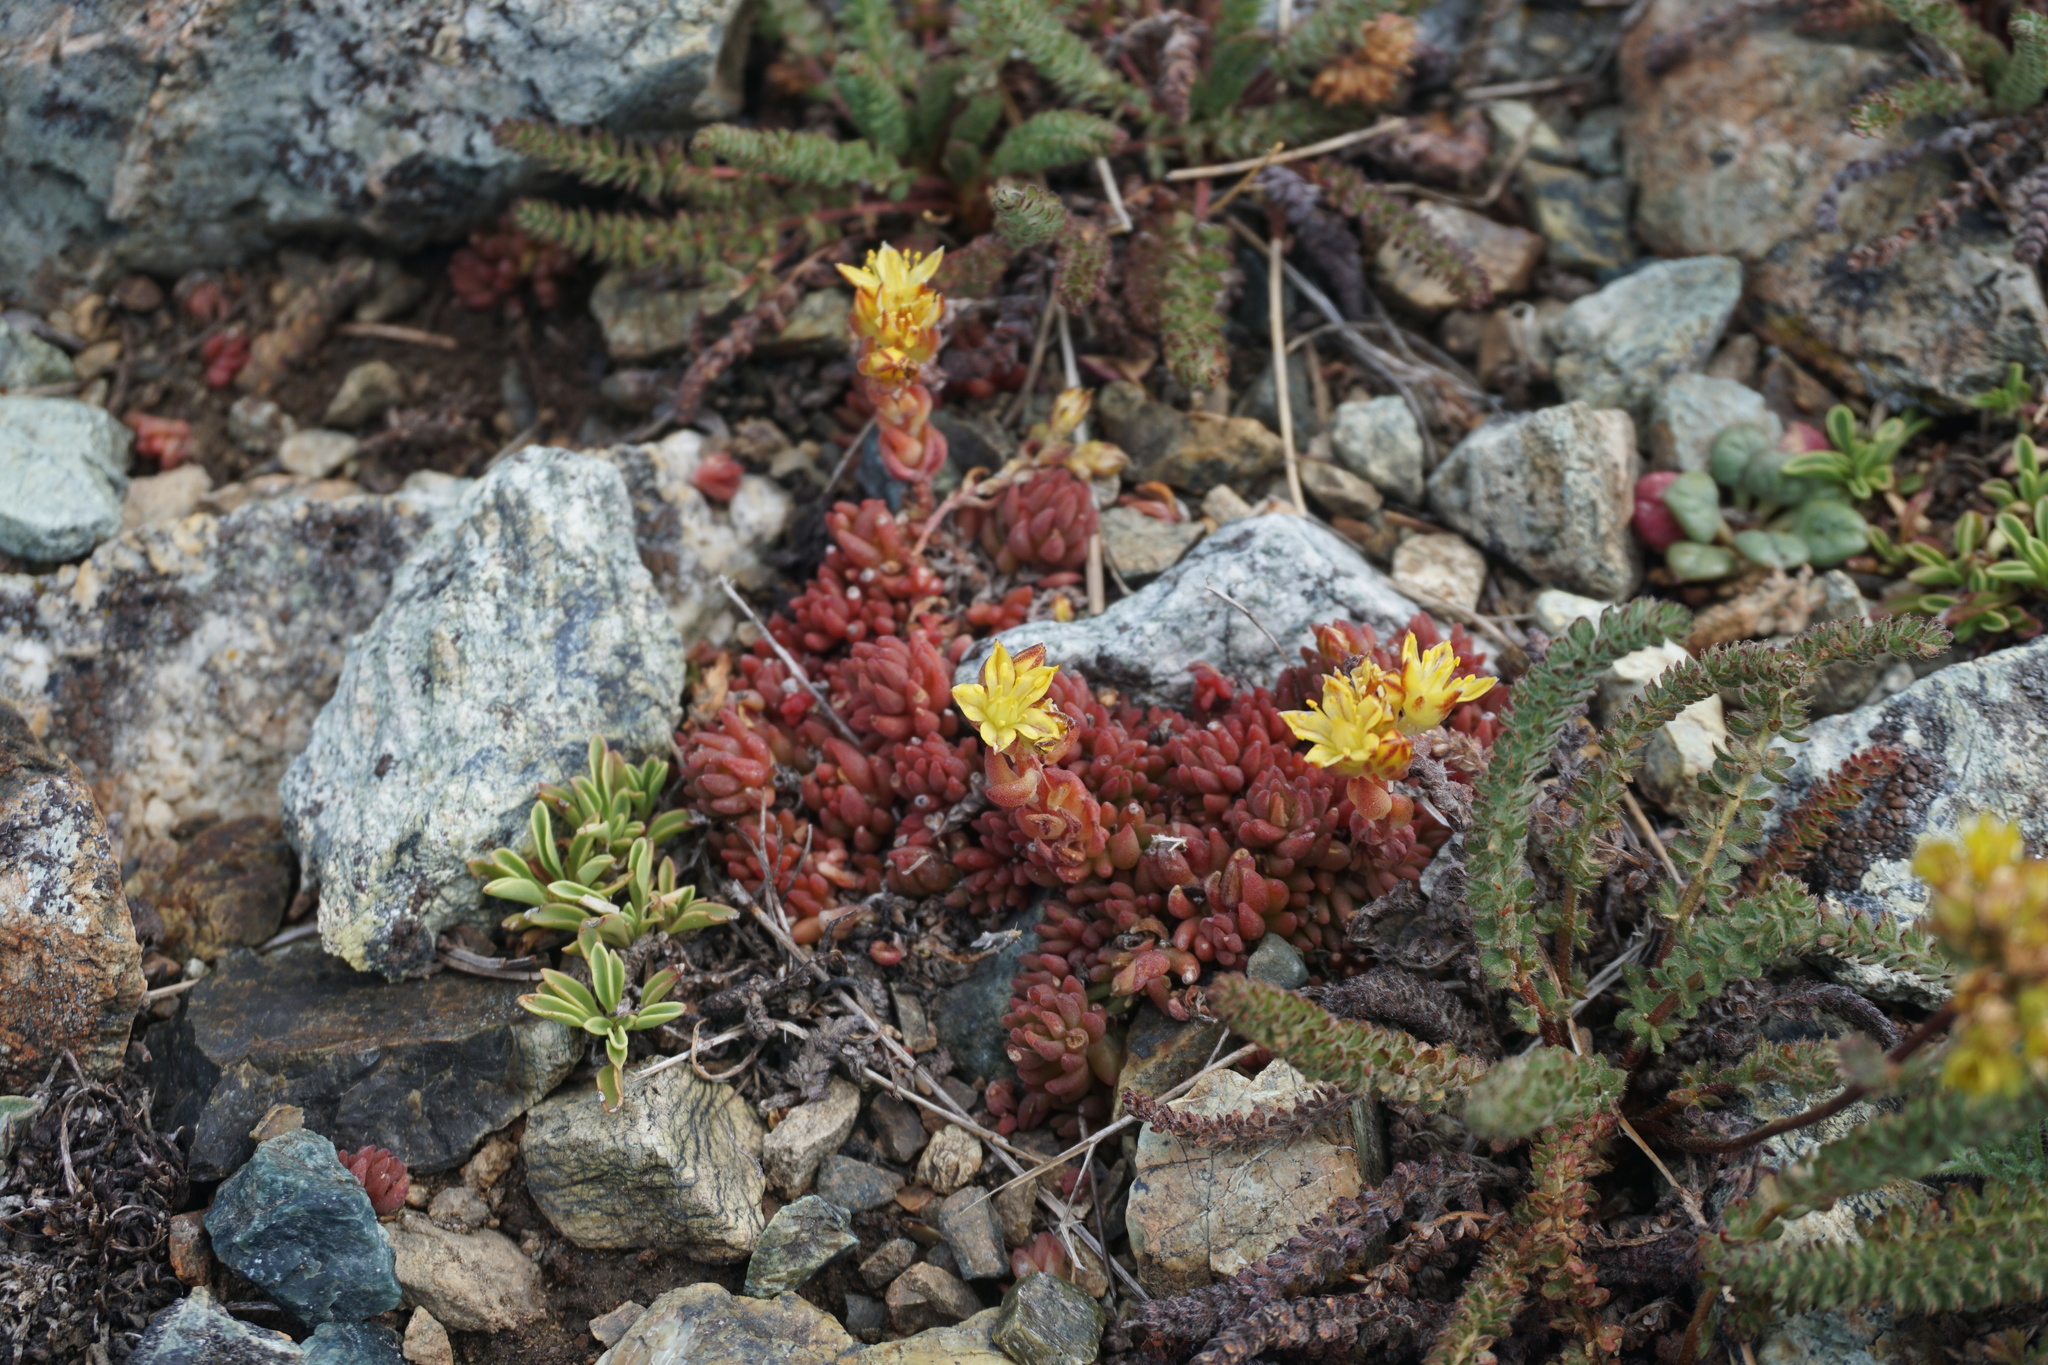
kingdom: Plantae
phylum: Tracheophyta
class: Magnoliopsida
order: Saxifragales
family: Crassulaceae
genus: Sedum
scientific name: Sedum lanceolatum
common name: Common stonecrop
